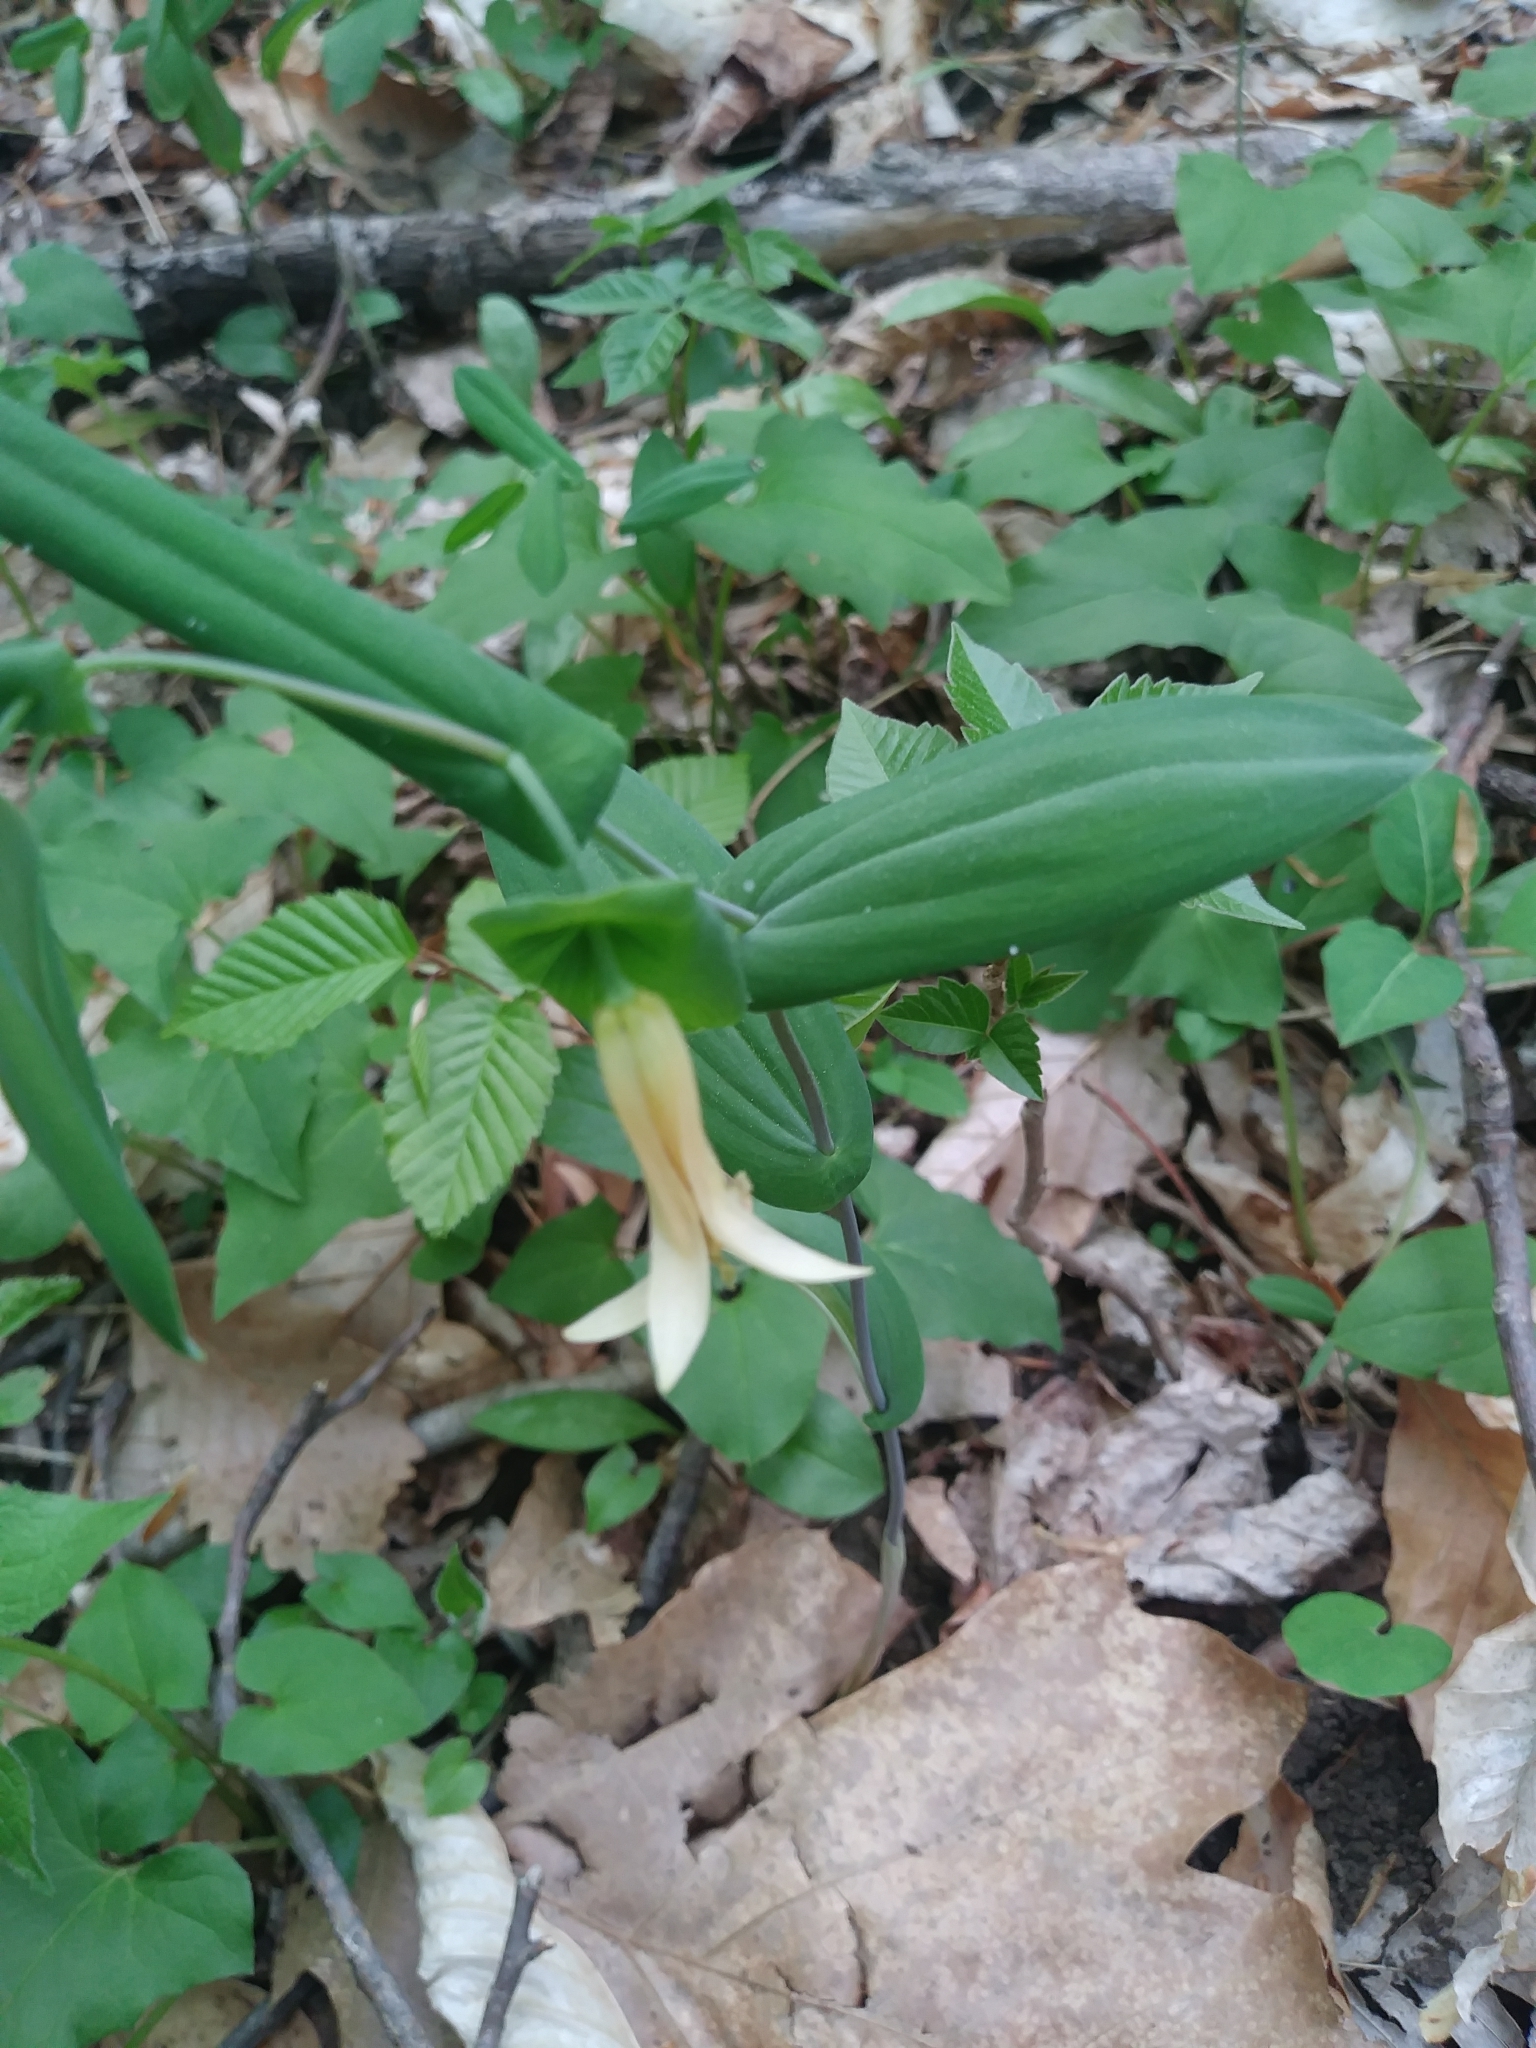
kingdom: Plantae
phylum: Tracheophyta
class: Liliopsida
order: Liliales
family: Colchicaceae
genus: Uvularia
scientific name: Uvularia perfoliata
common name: Perfoliate bellwort
